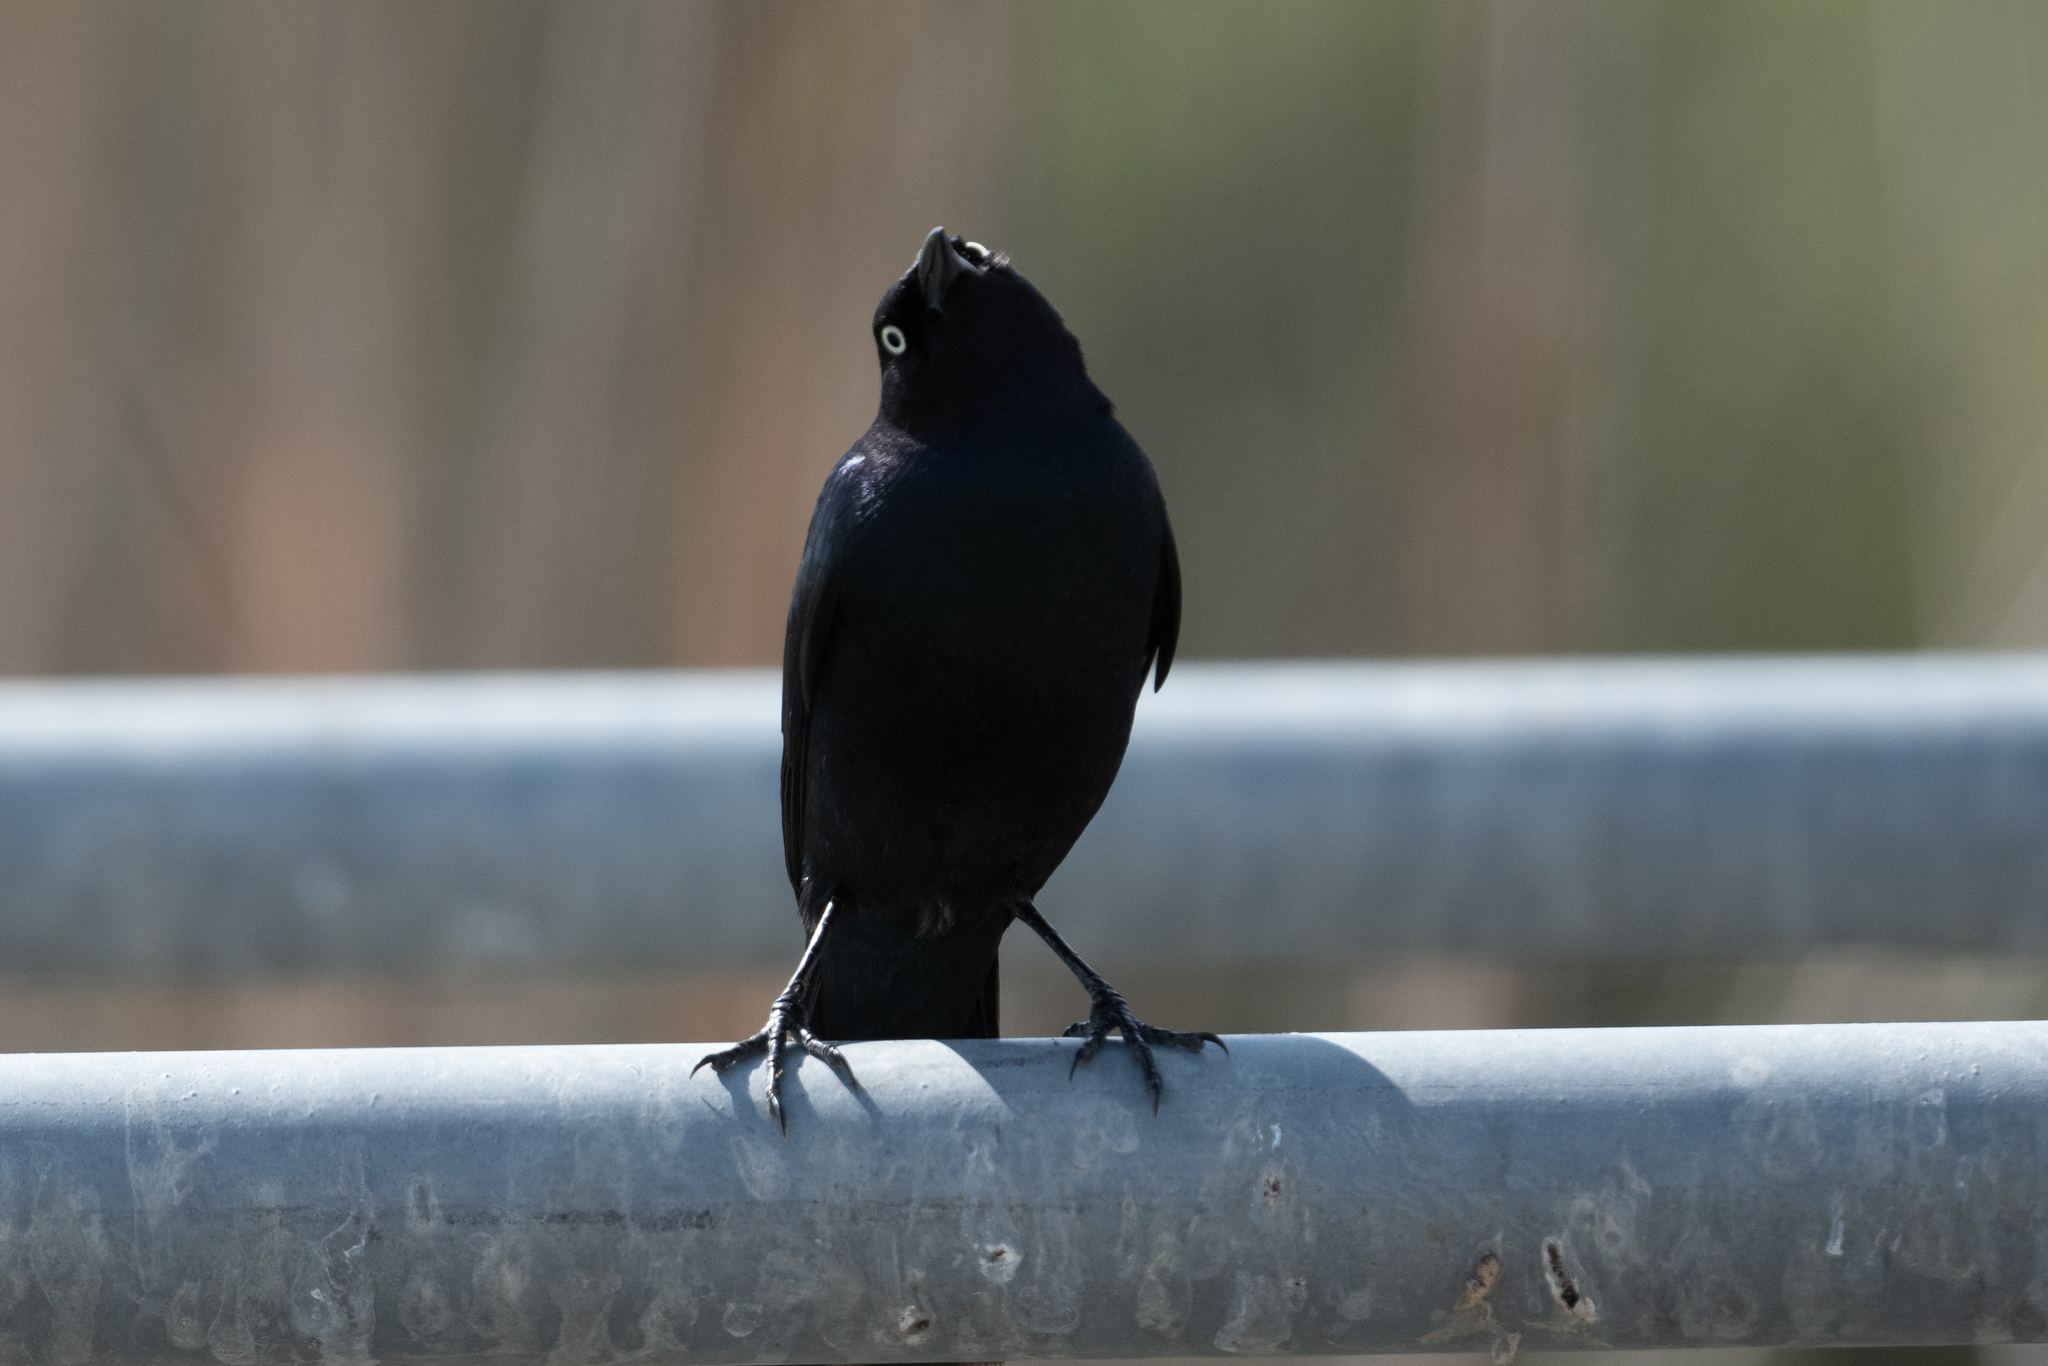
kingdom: Animalia
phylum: Chordata
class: Aves
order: Passeriformes
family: Icteridae
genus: Euphagus
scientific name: Euphagus cyanocephalus
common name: Brewer's blackbird
